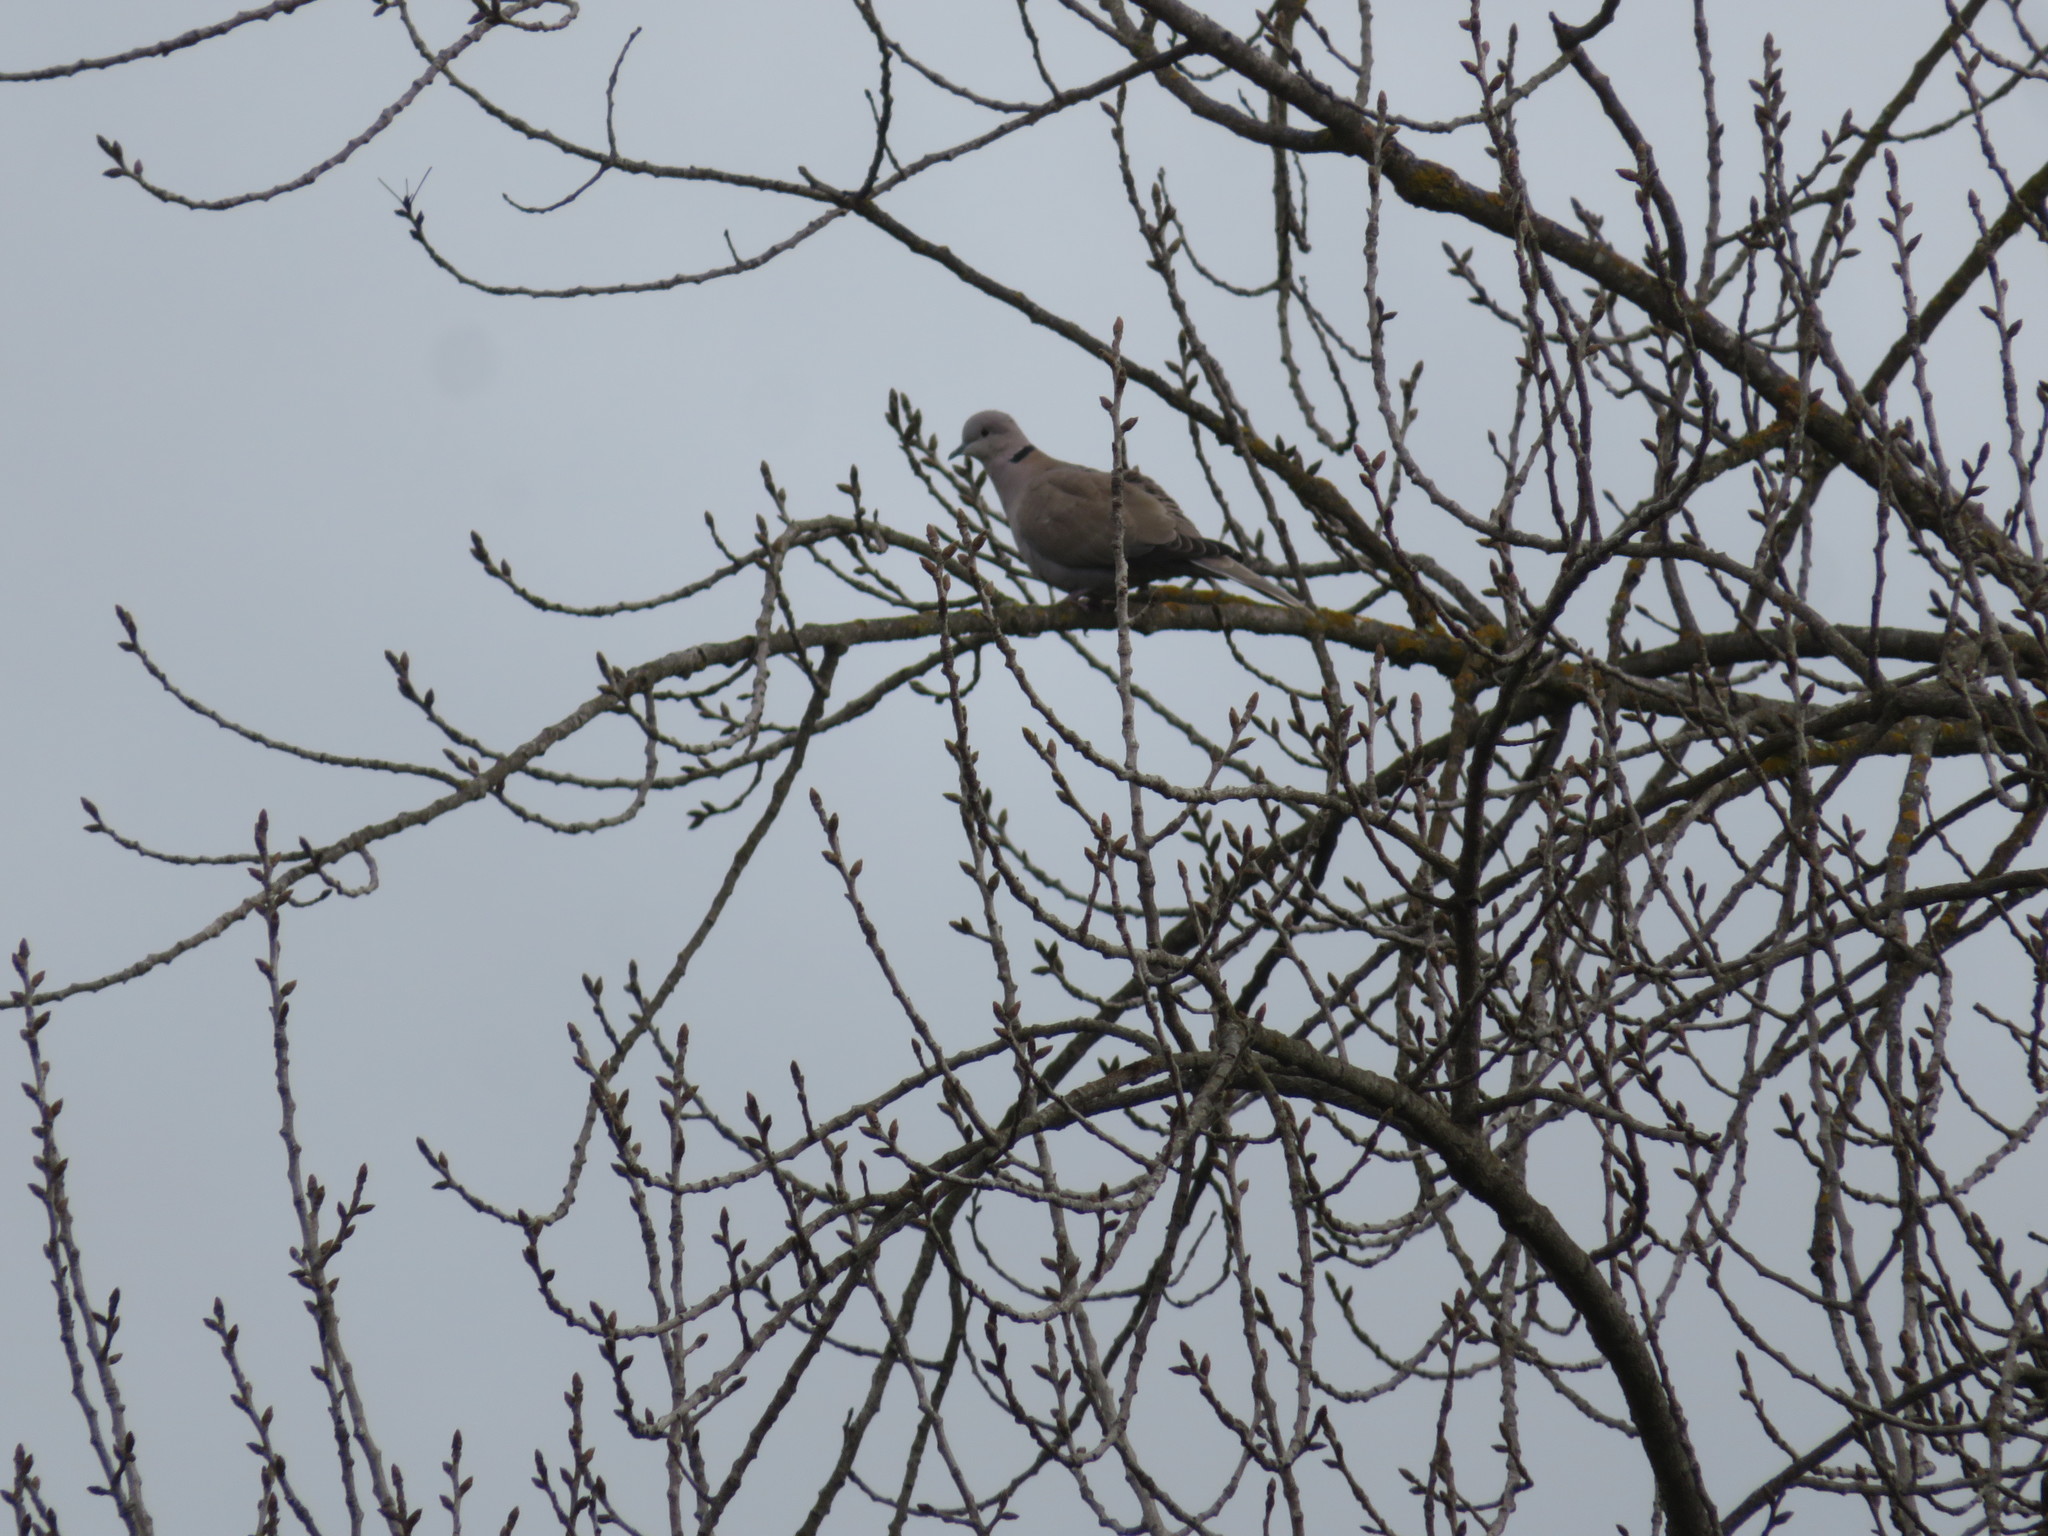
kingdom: Animalia
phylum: Chordata
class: Aves
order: Columbiformes
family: Columbidae
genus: Streptopelia
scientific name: Streptopelia decaocto
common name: Eurasian collared dove
